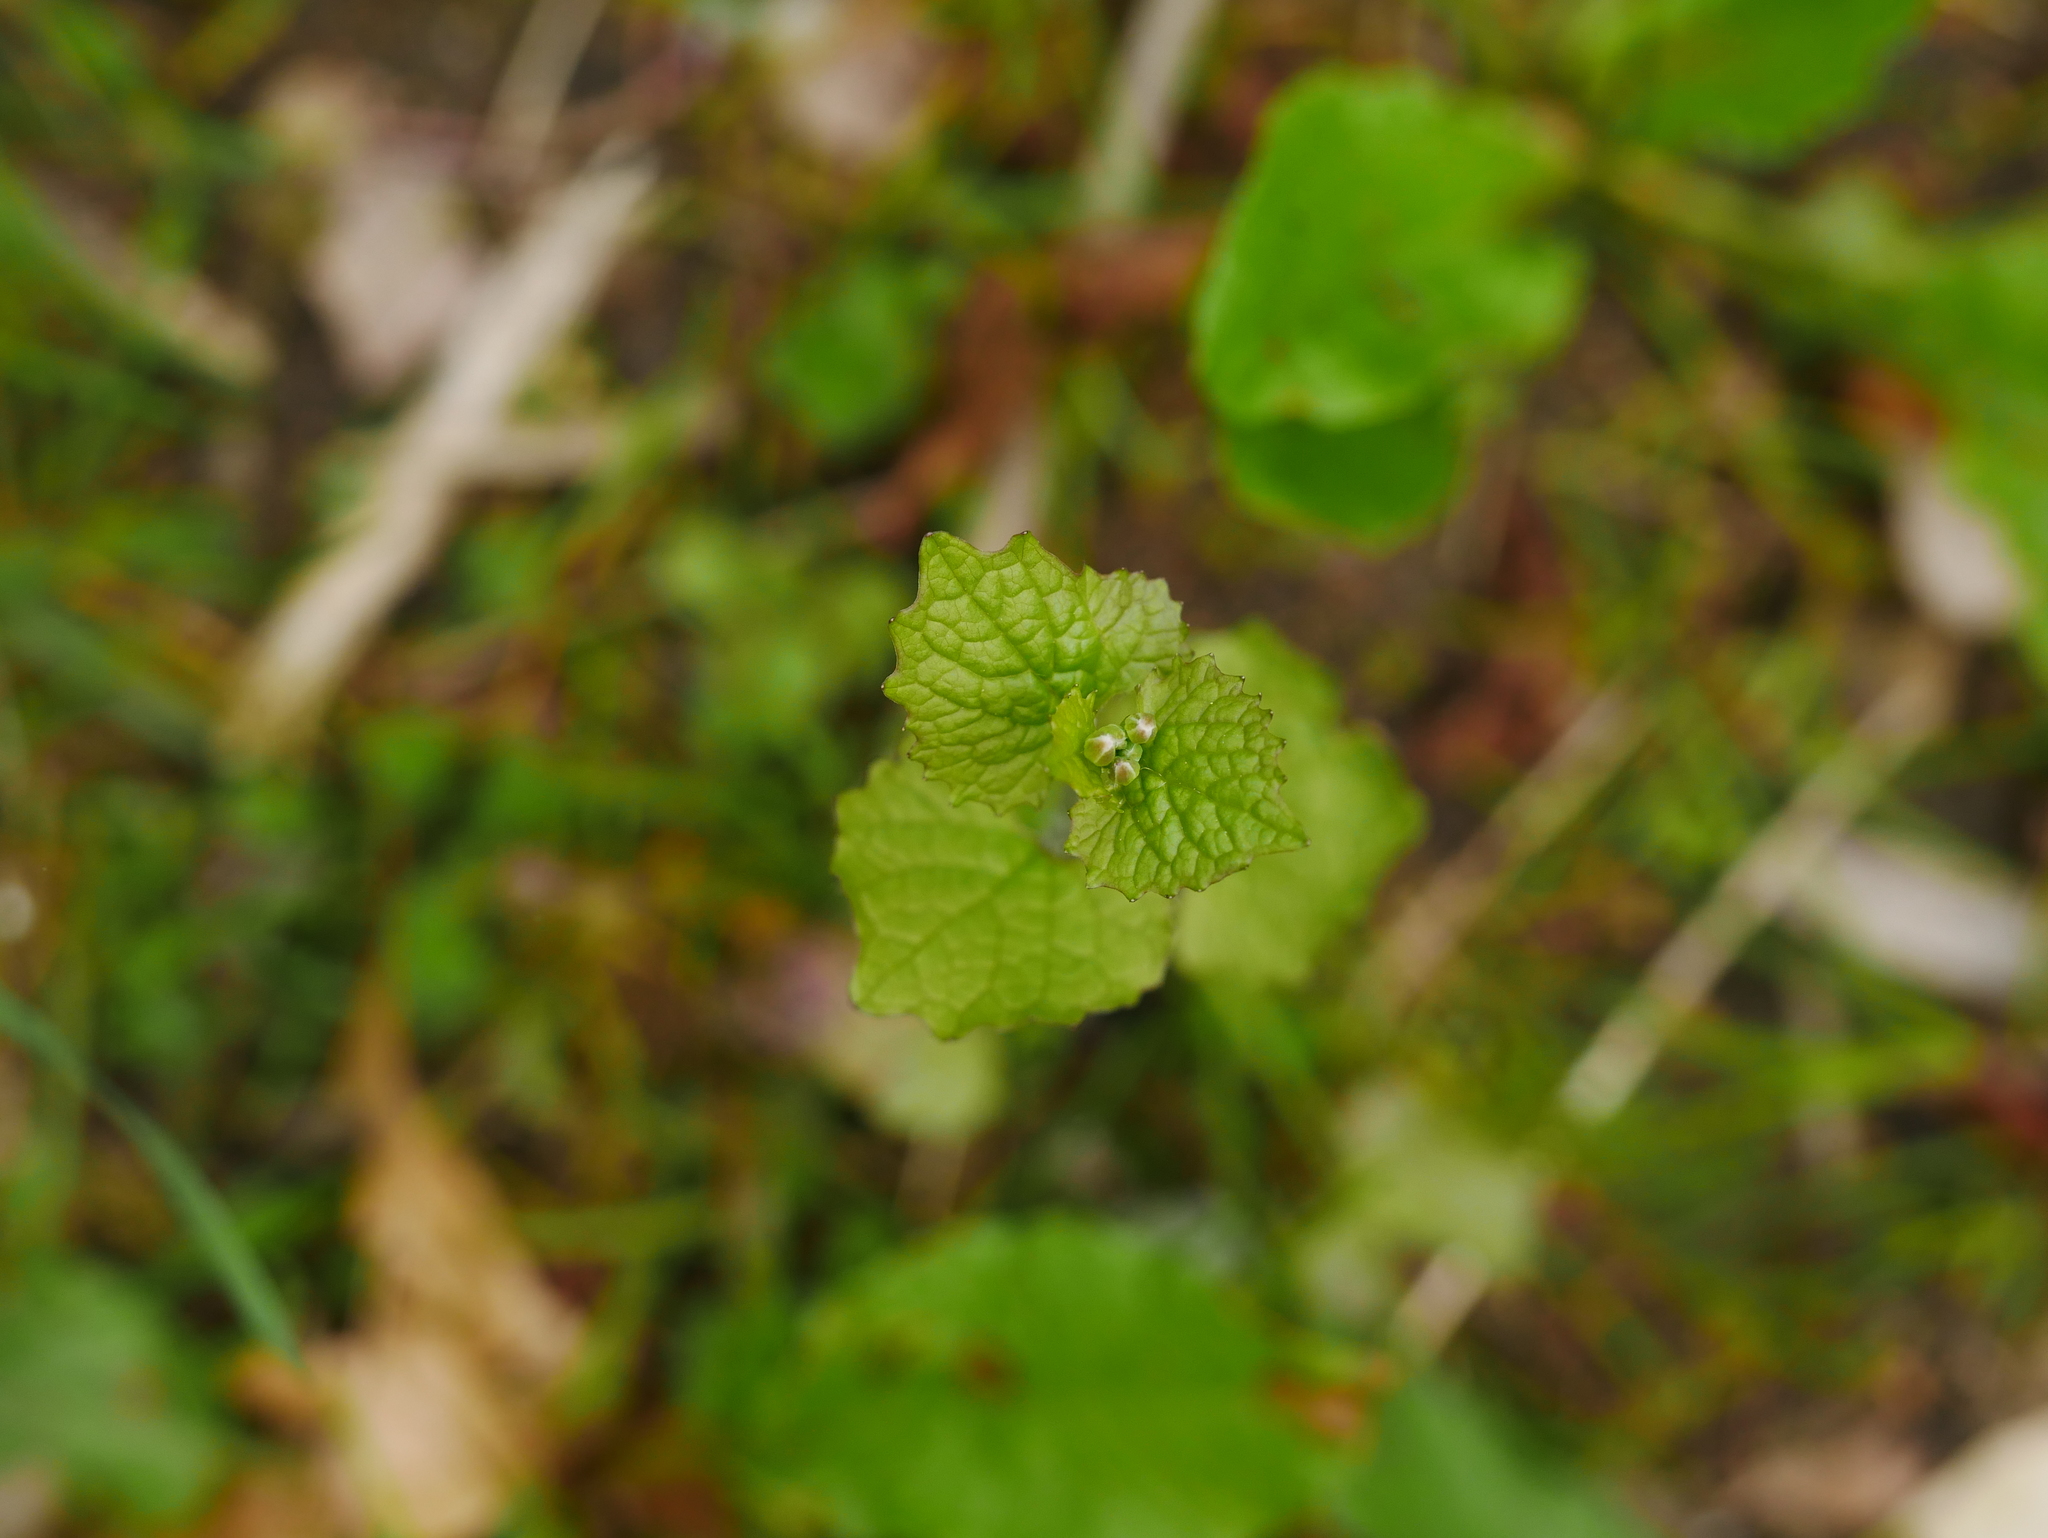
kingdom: Plantae
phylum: Tracheophyta
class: Magnoliopsida
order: Brassicales
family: Brassicaceae
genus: Alliaria
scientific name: Alliaria petiolata
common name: Garlic mustard
